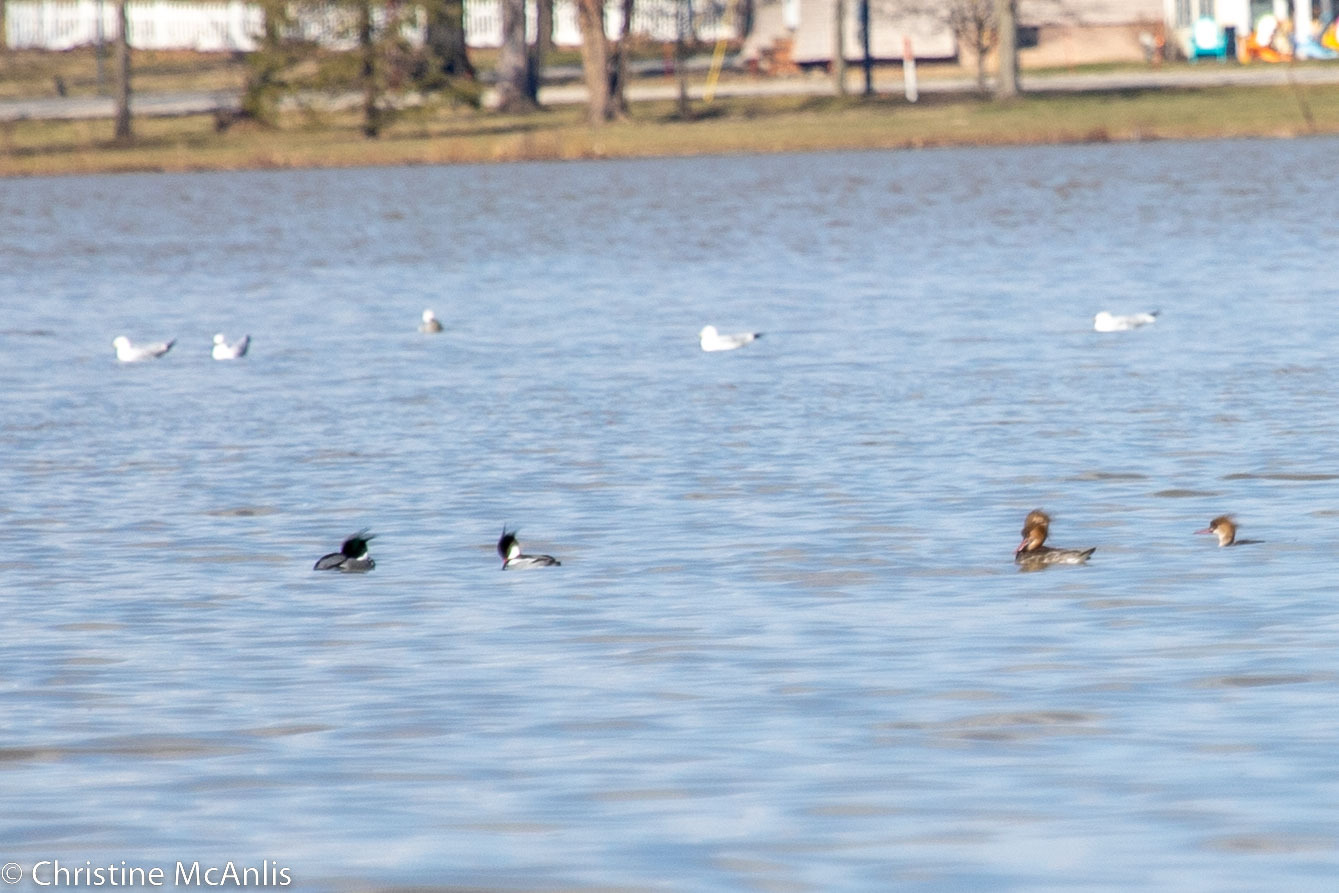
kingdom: Animalia
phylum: Chordata
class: Aves
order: Anseriformes
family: Anatidae
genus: Mergus
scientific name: Mergus serrator
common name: Red-breasted merganser
